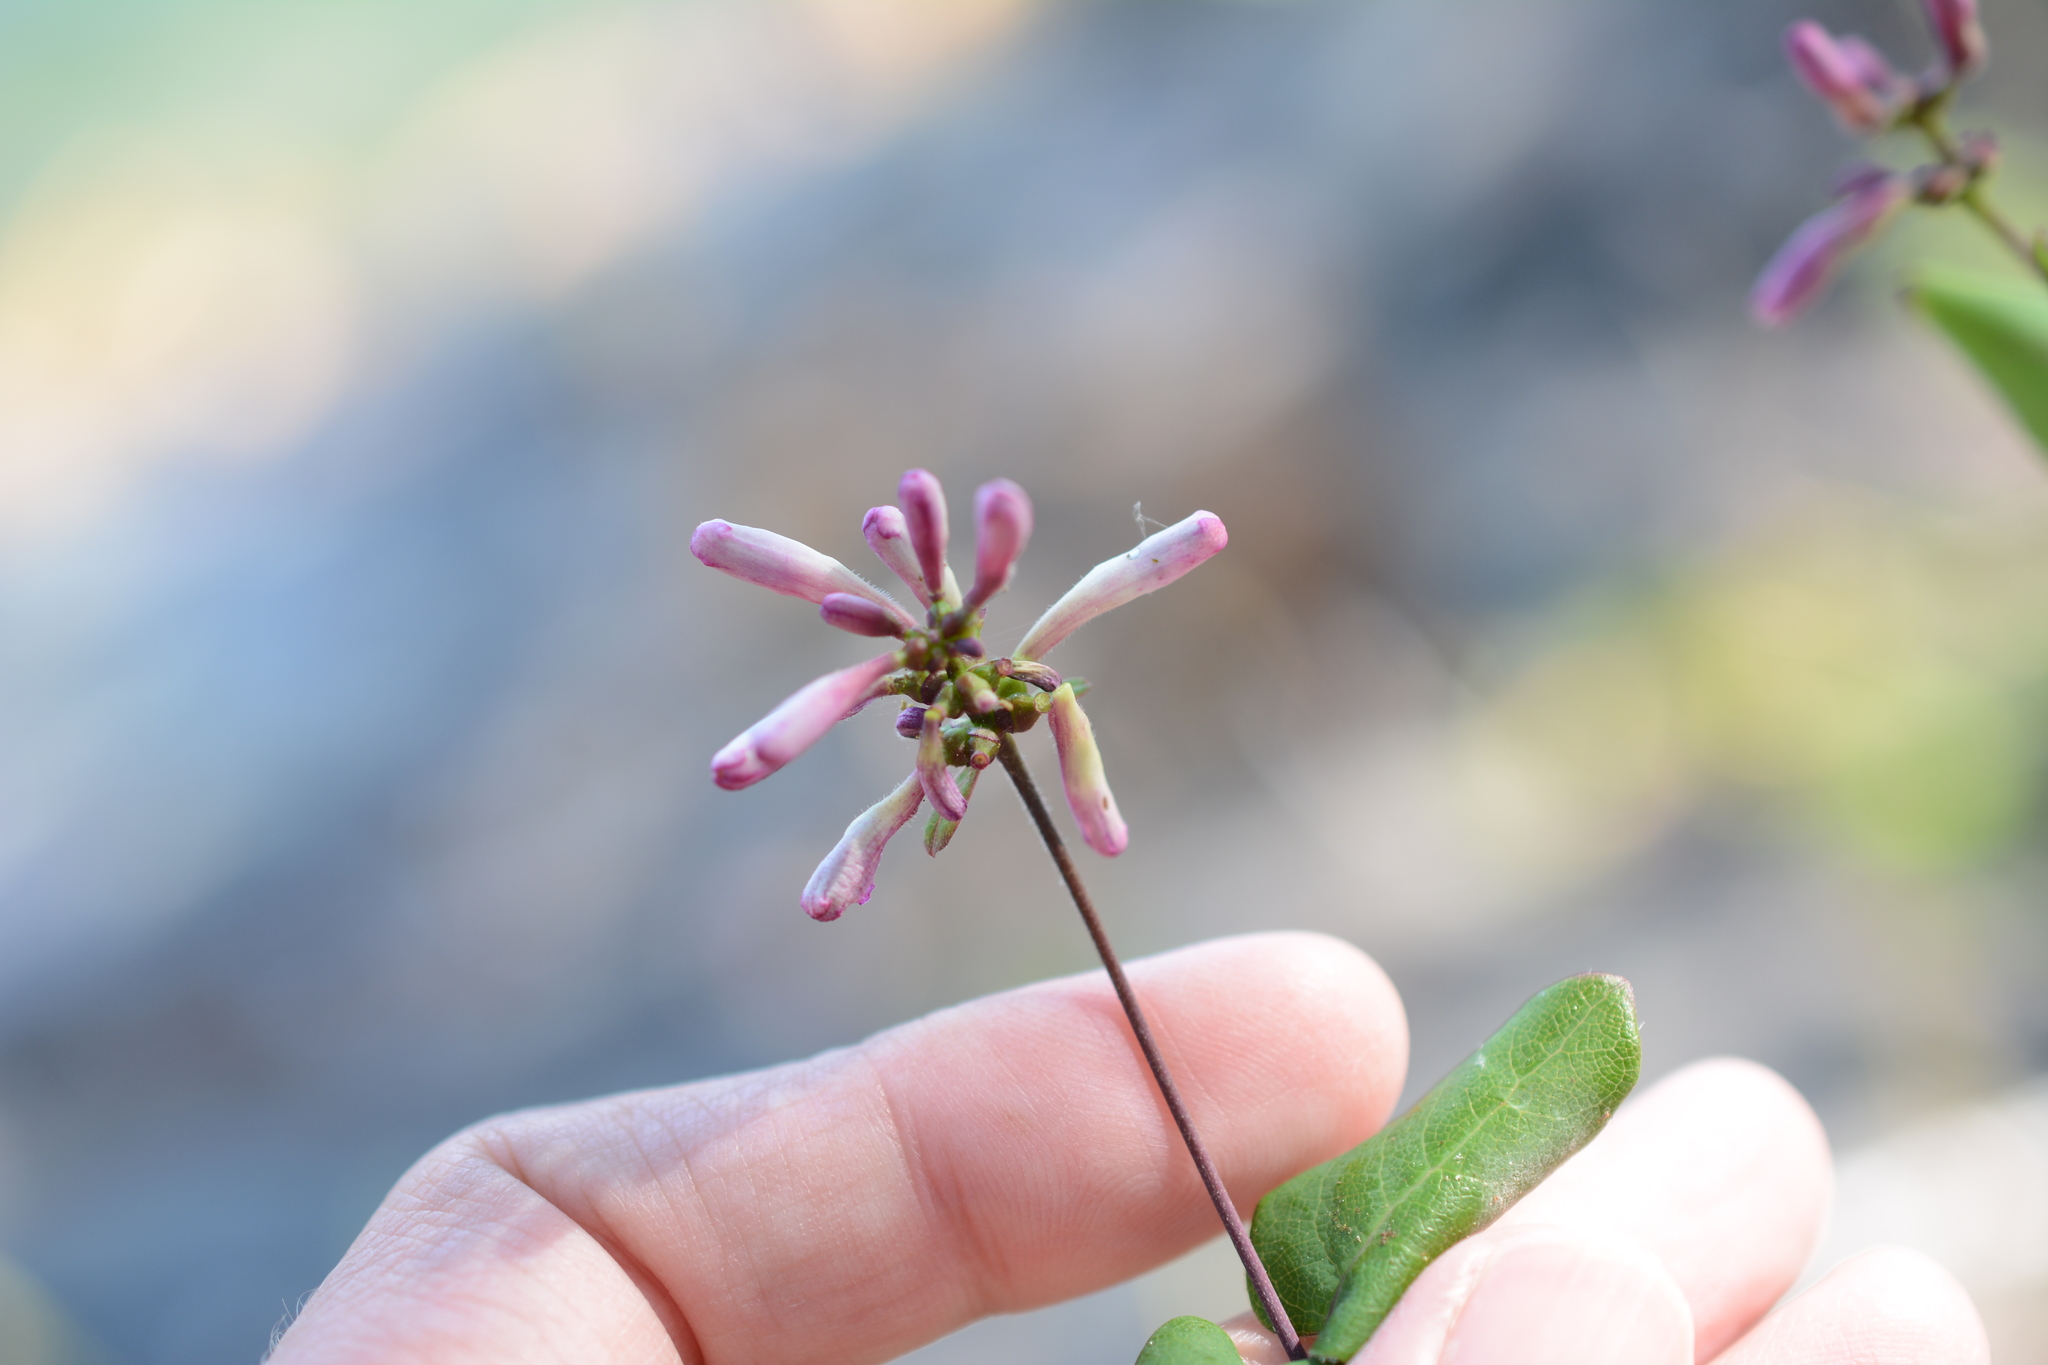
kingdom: Plantae
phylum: Tracheophyta
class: Magnoliopsida
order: Dipsacales
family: Caprifoliaceae
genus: Lonicera
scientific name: Lonicera hispidula
